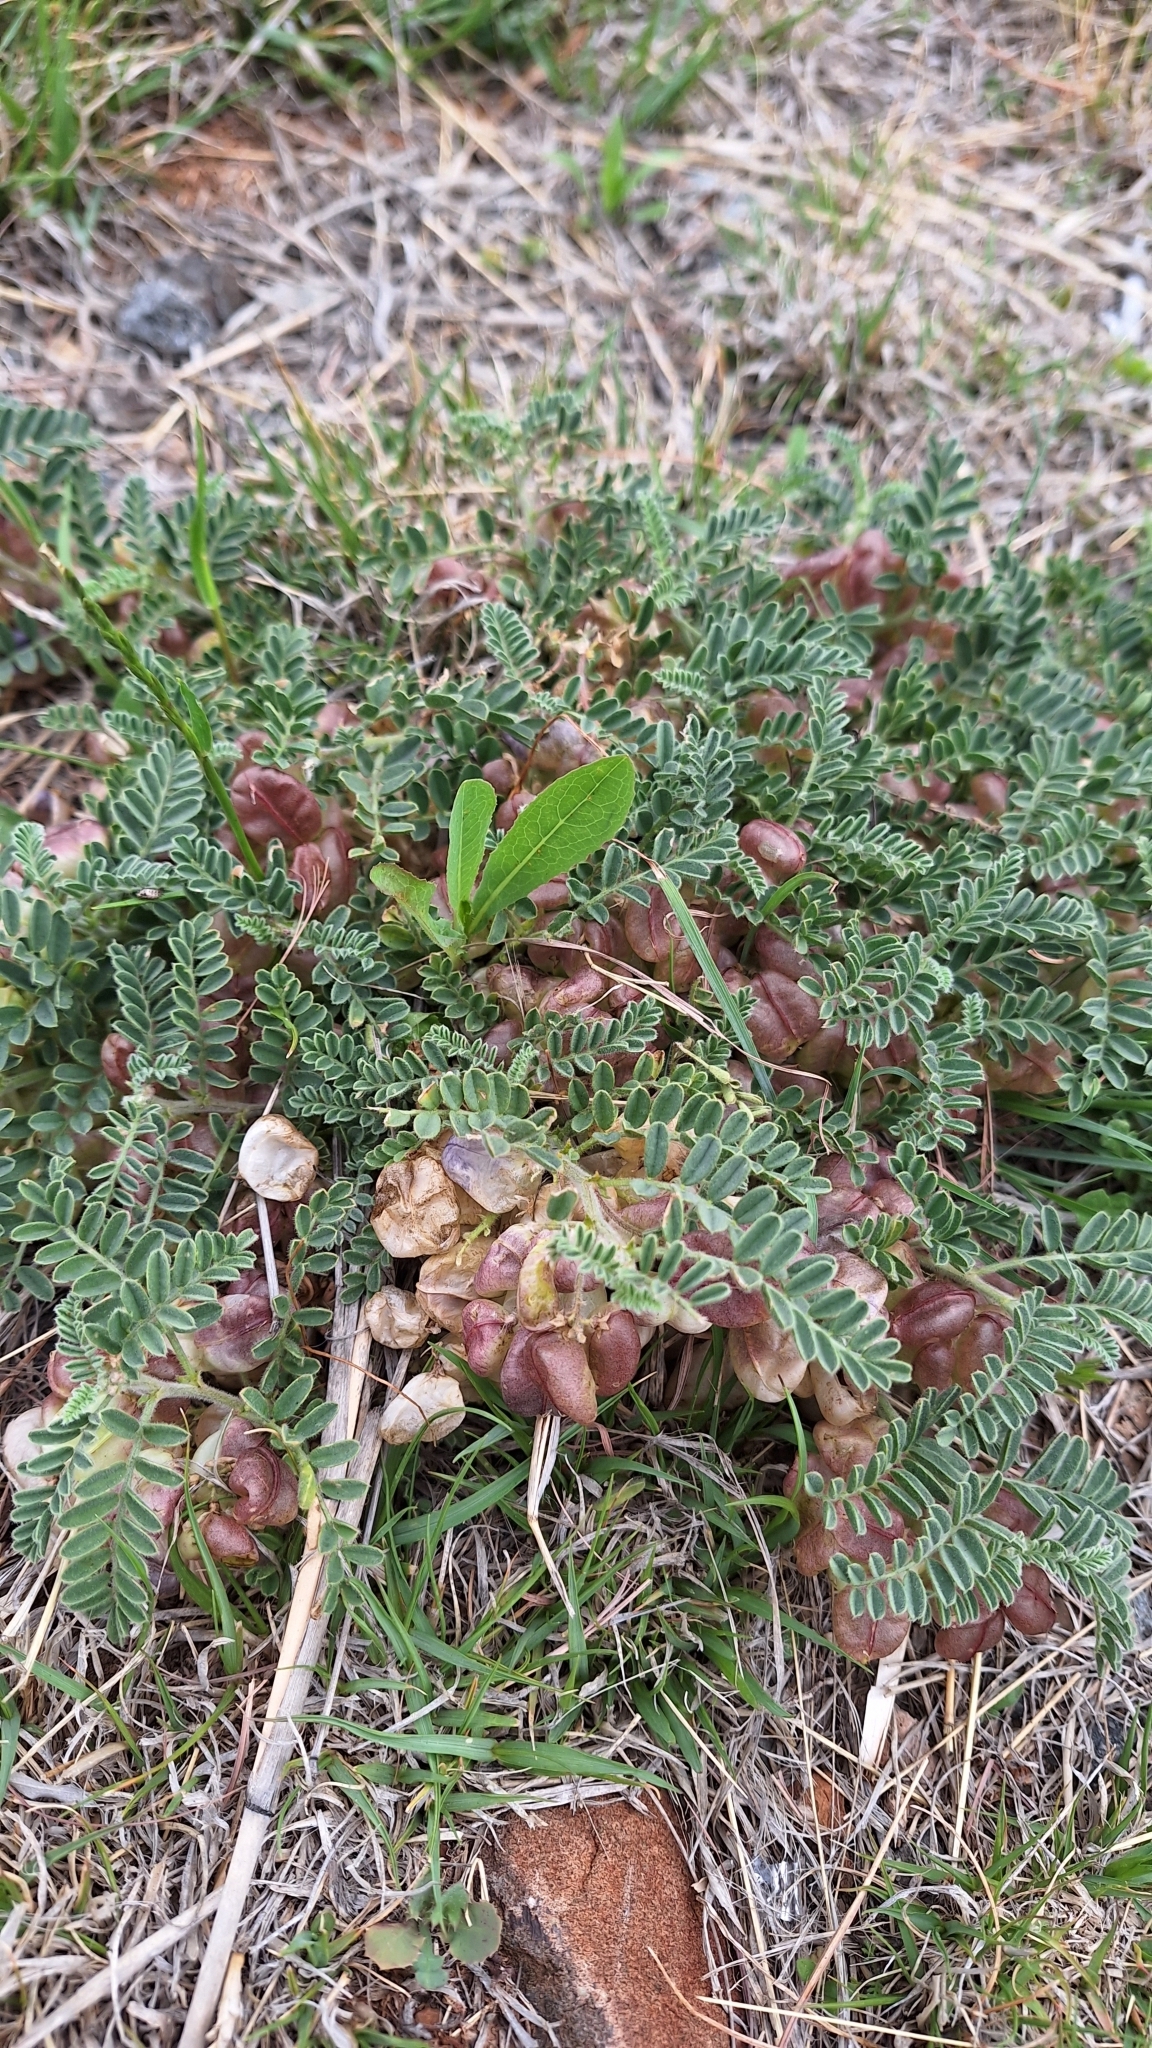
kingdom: Plantae
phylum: Tracheophyta
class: Magnoliopsida
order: Fabales
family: Fabaceae
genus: Lessertia
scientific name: Lessertia frutescens
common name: Balloon-pea
